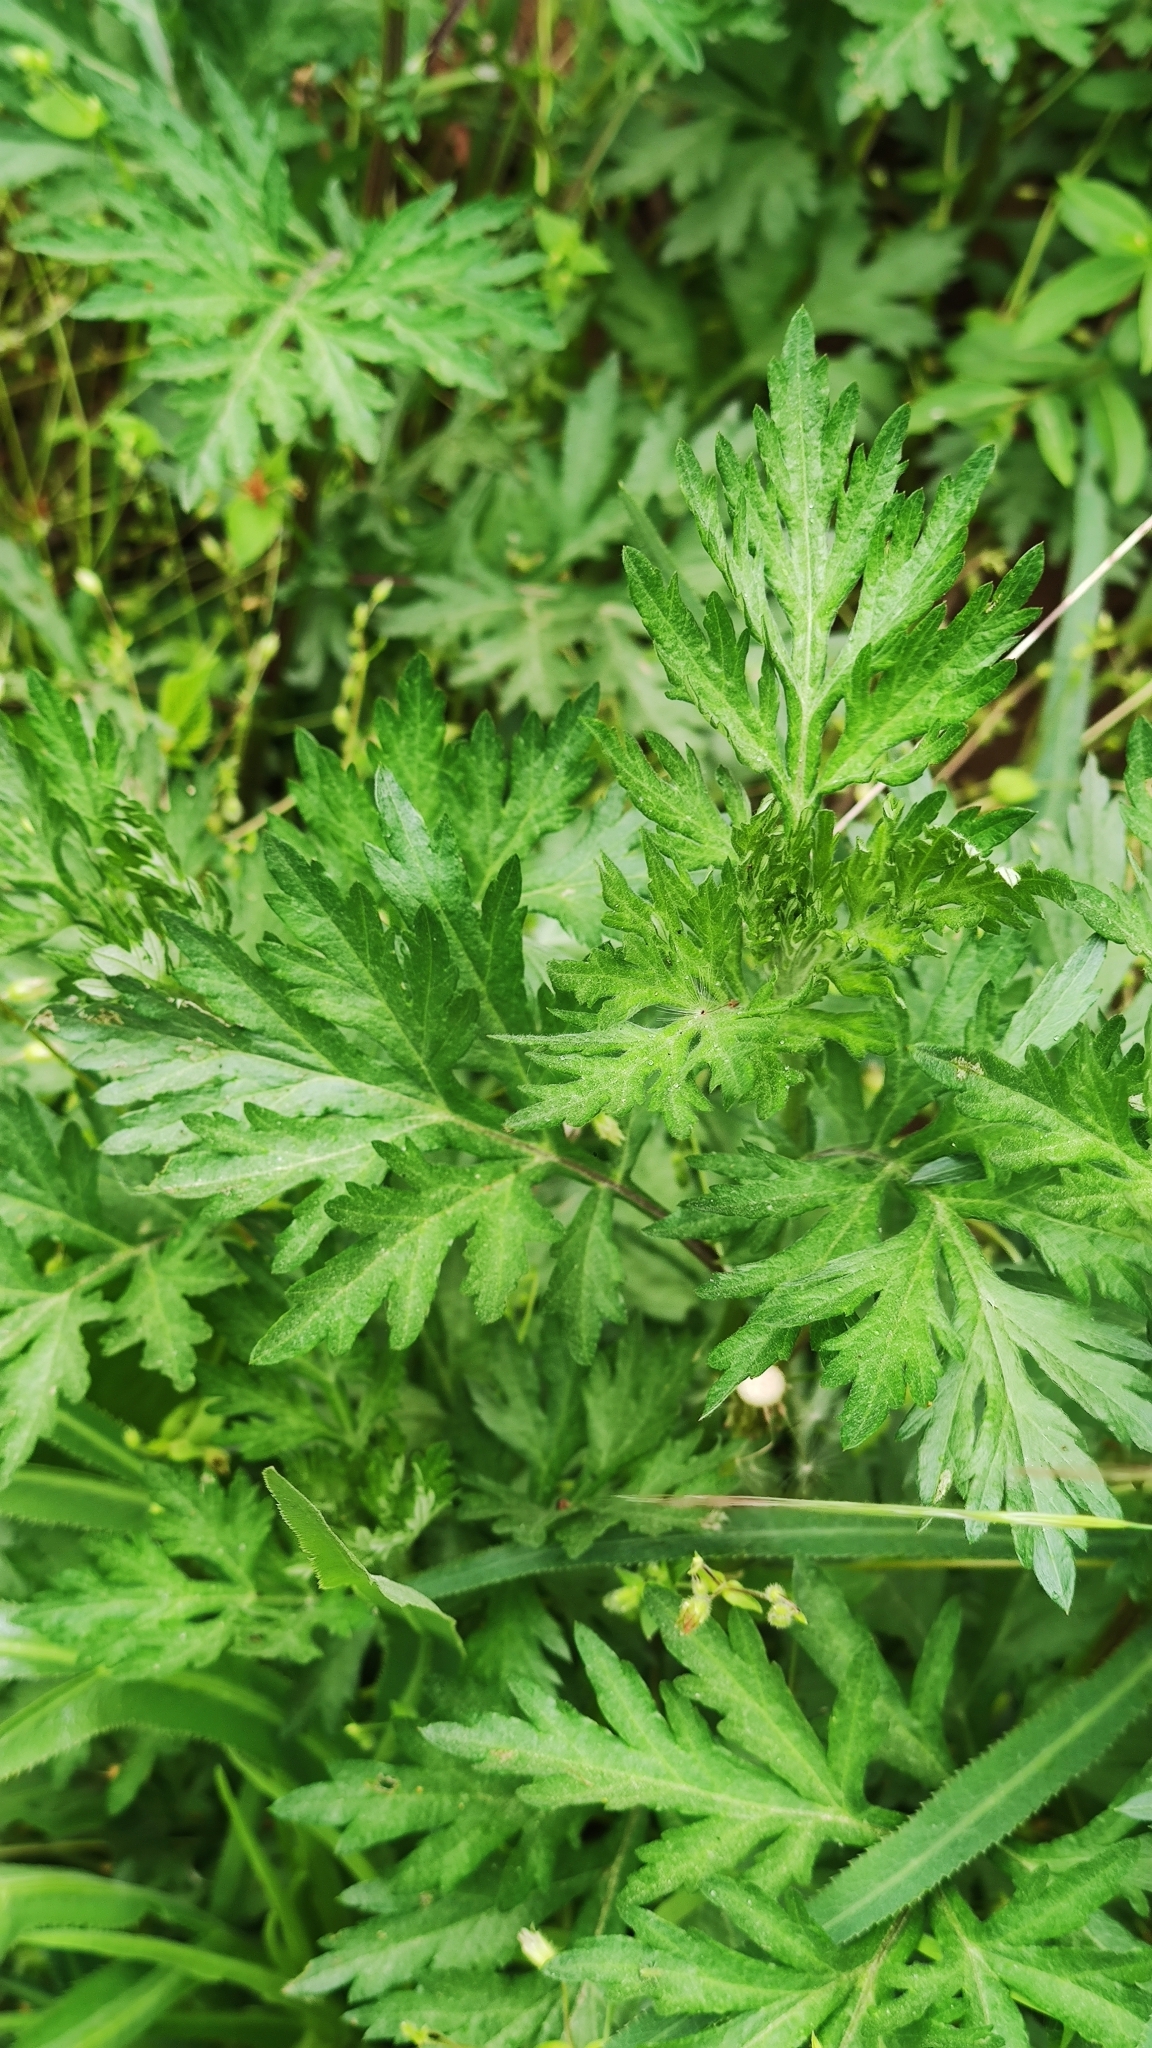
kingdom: Plantae
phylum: Tracheophyta
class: Magnoliopsida
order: Asterales
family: Asteraceae
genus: Artemisia
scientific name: Artemisia vulgaris
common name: Mugwort
